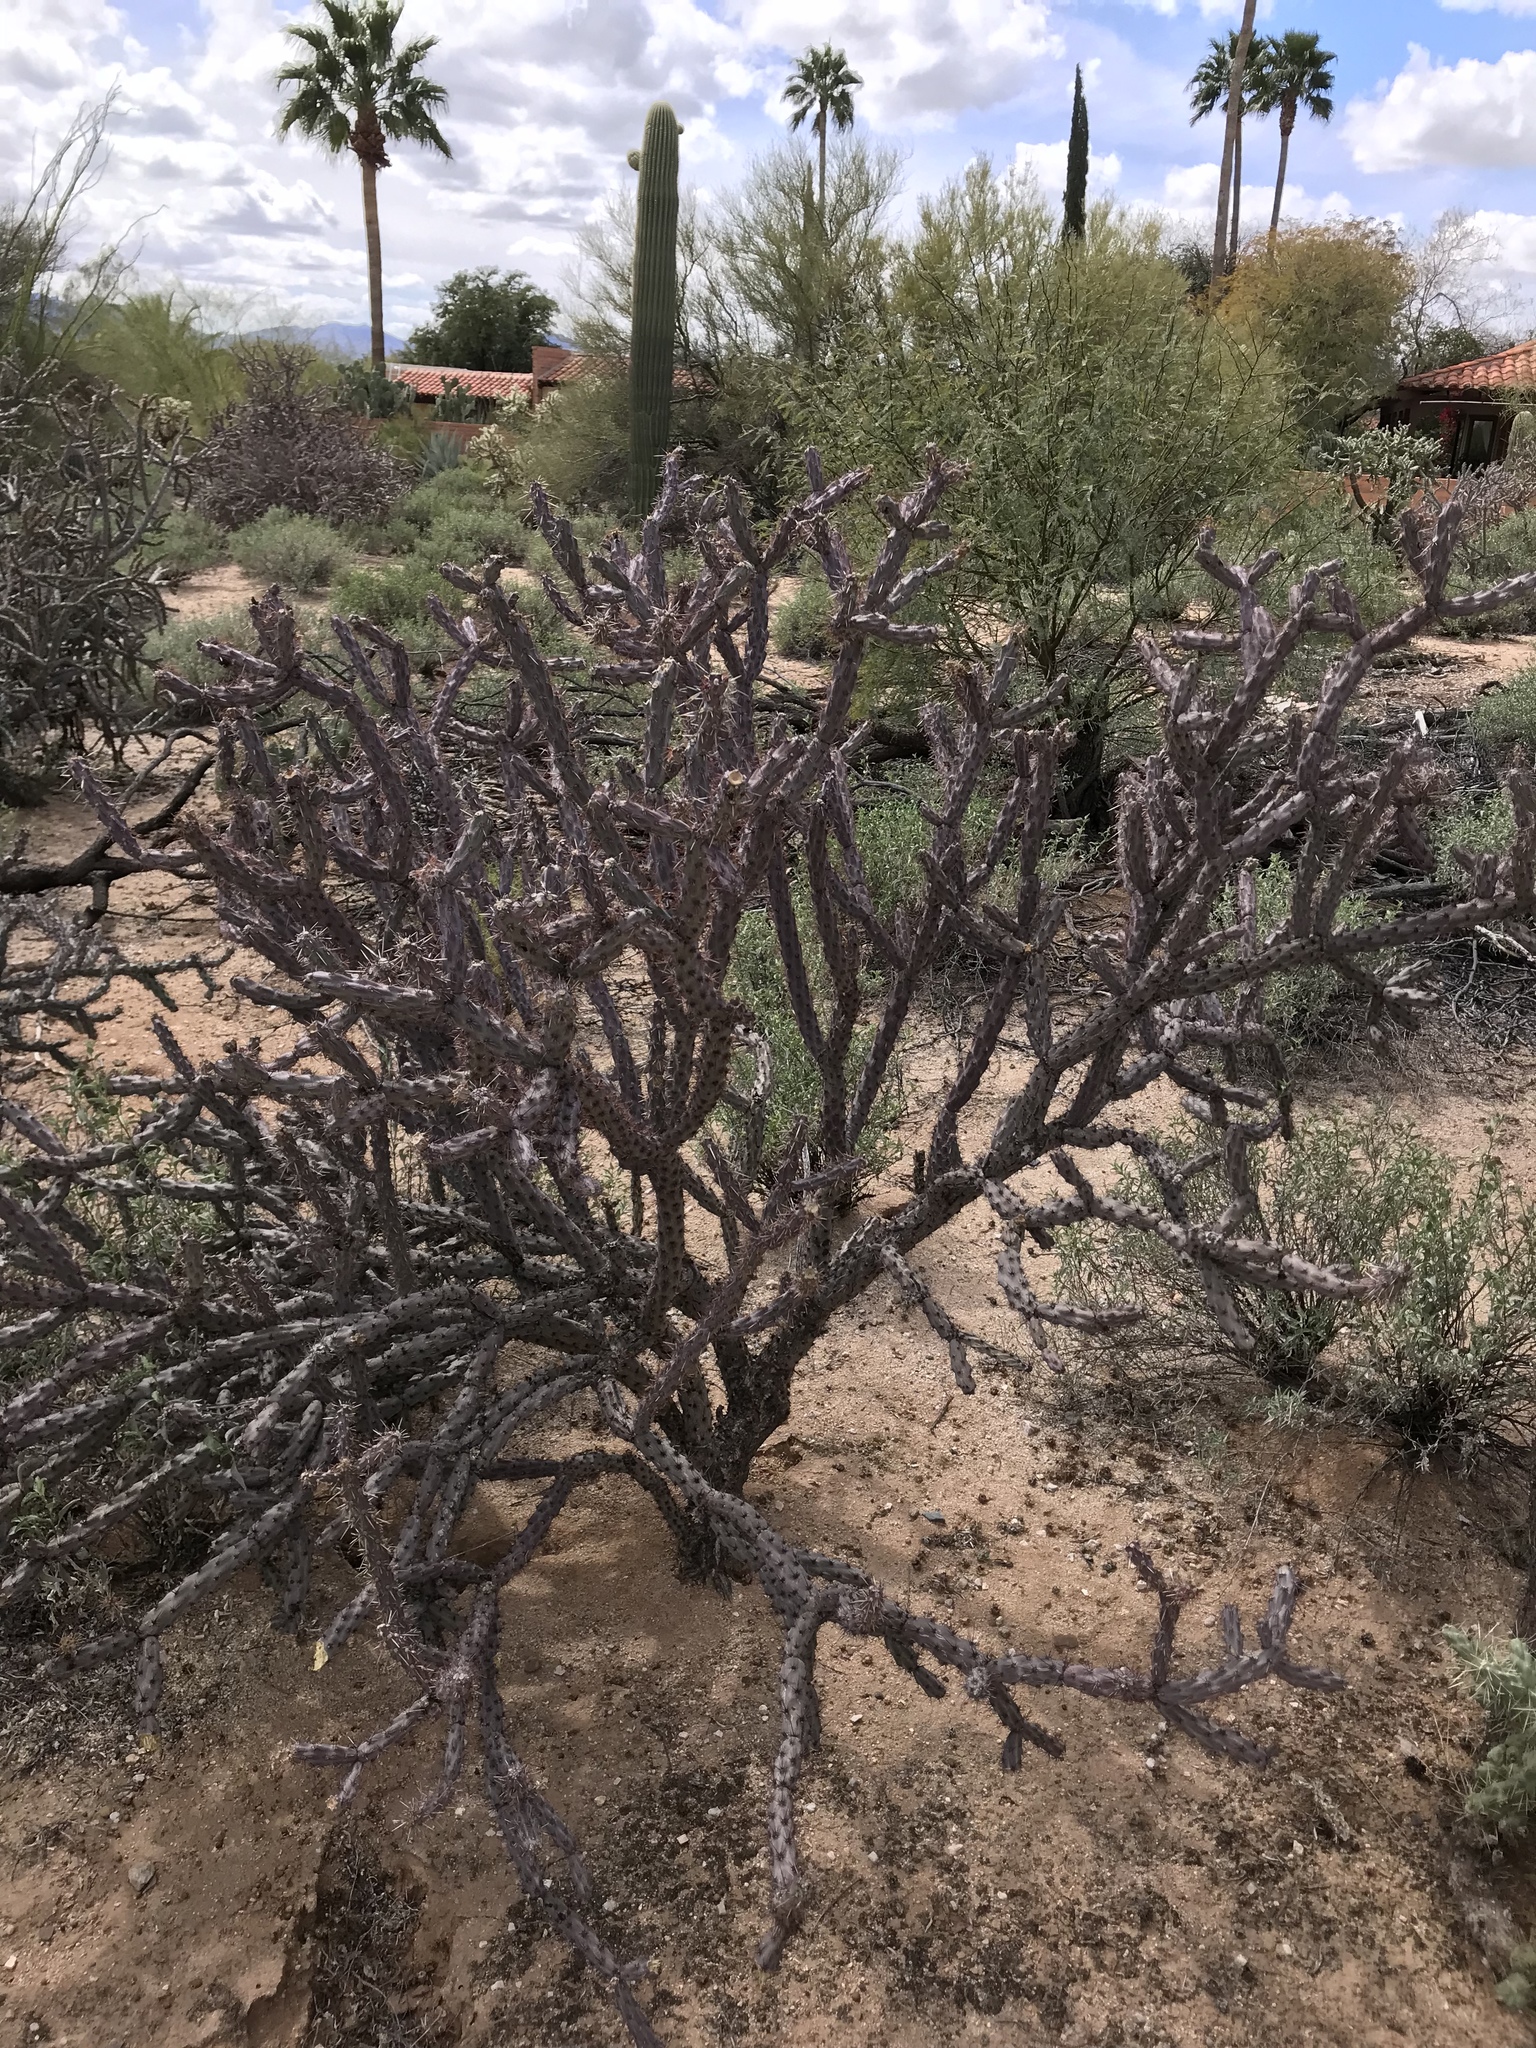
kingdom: Plantae
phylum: Tracheophyta
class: Magnoliopsida
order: Caryophyllales
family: Cactaceae
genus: Cylindropuntia
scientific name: Cylindropuntia thurberi
